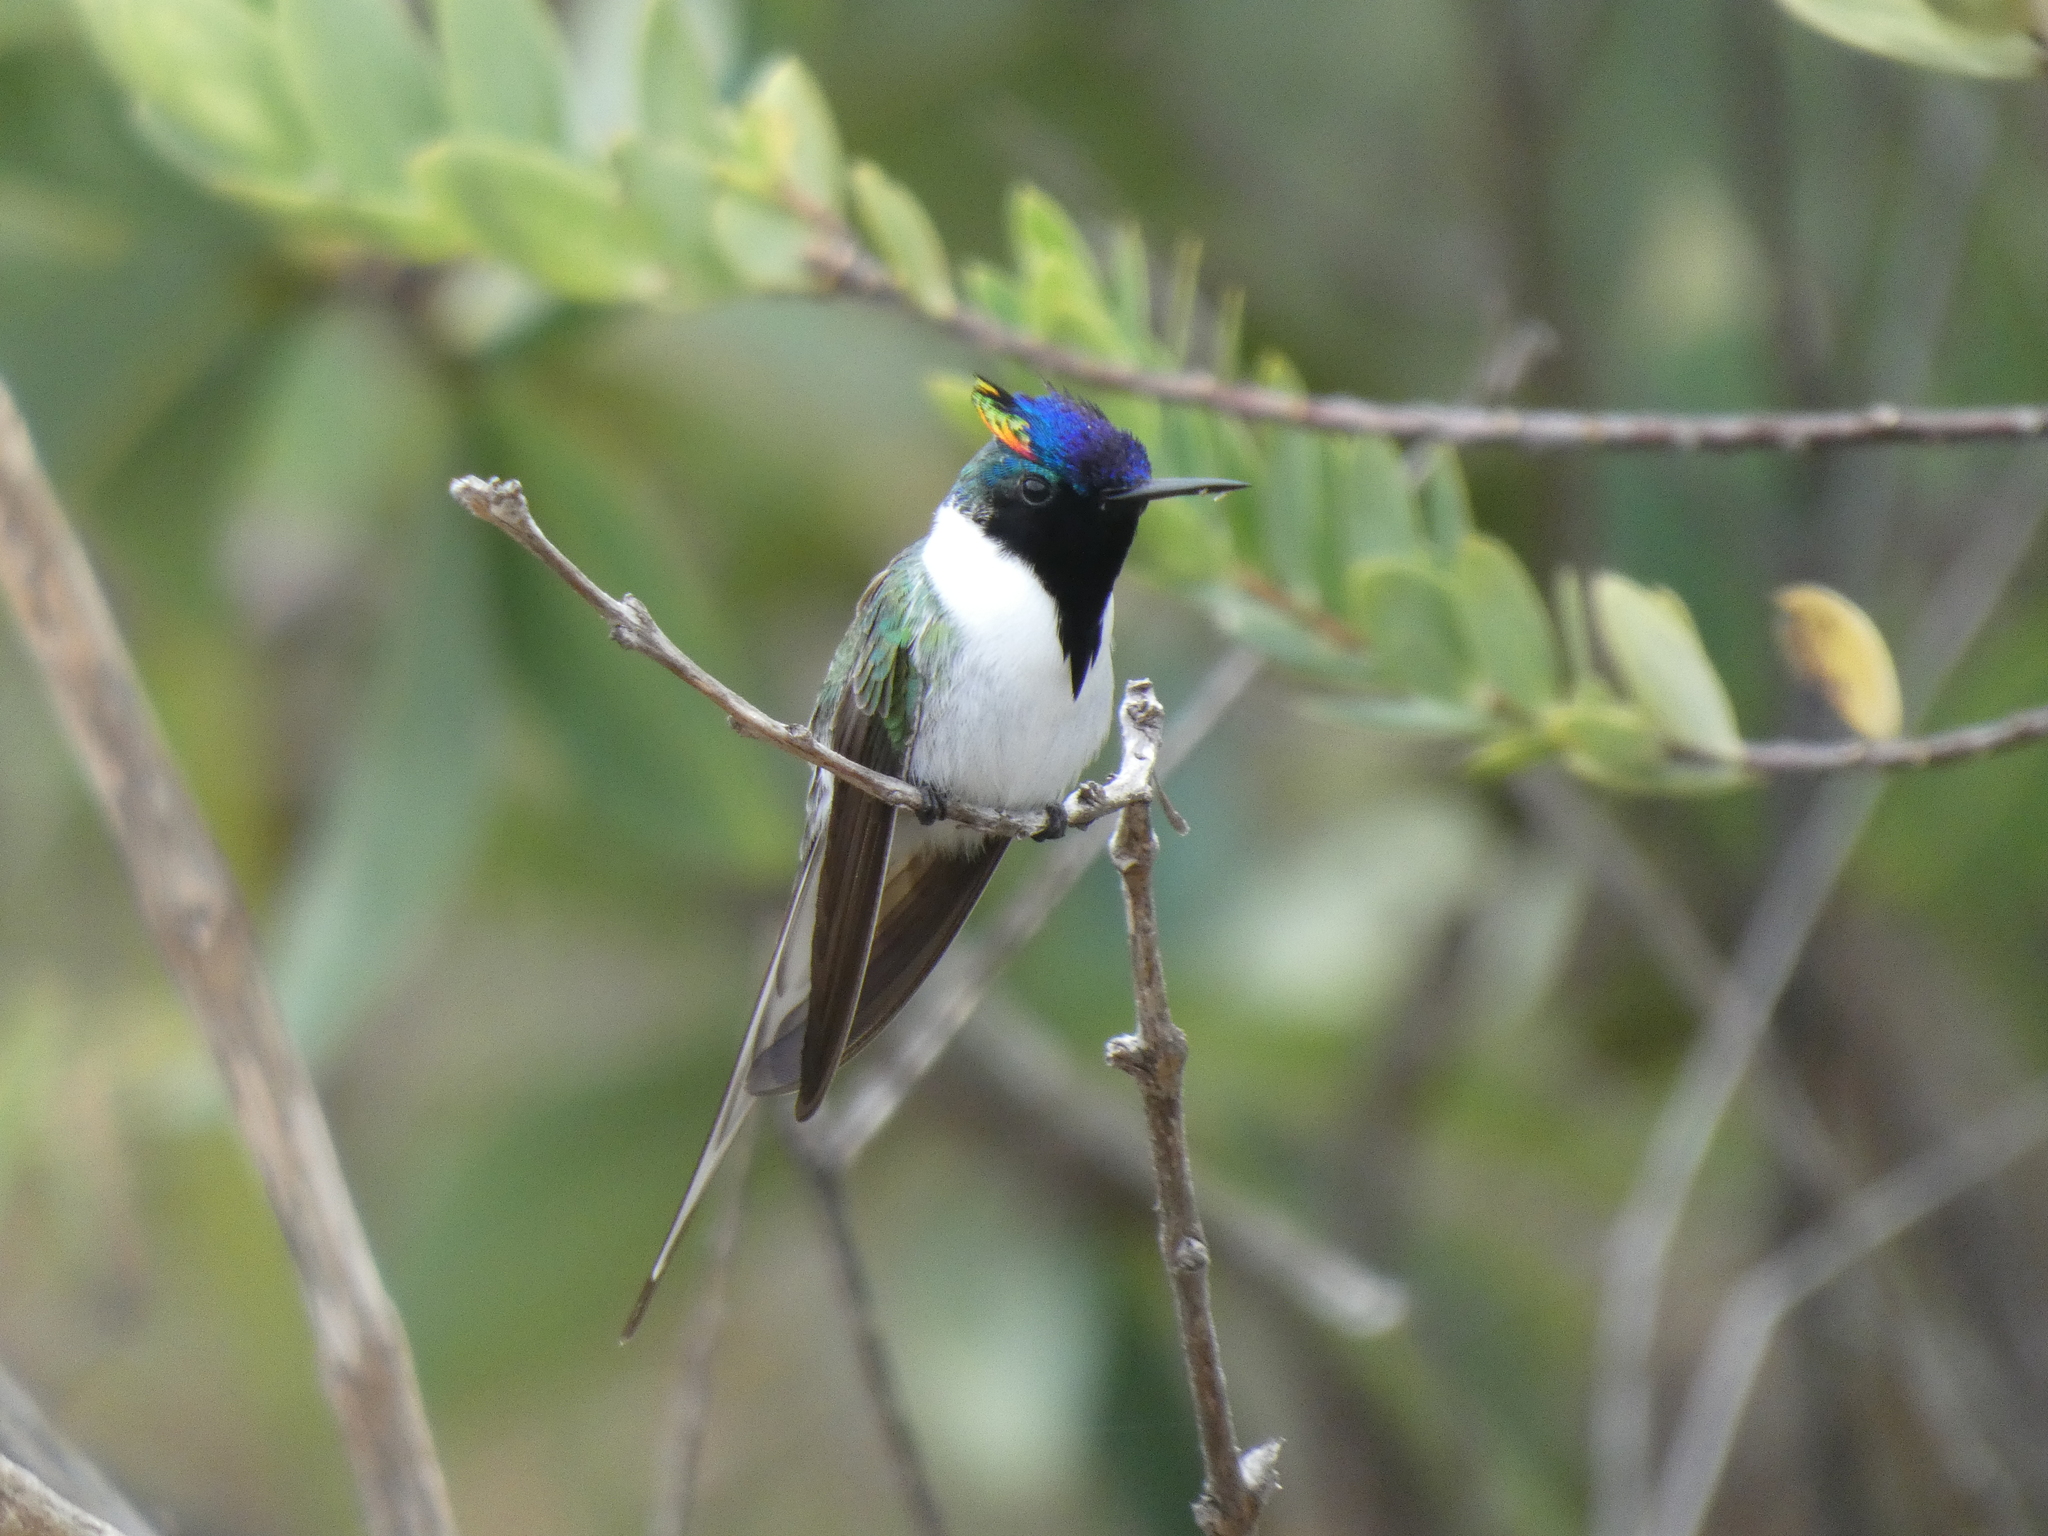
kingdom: Animalia
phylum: Chordata
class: Aves
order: Apodiformes
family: Trochilidae
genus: Heliactin
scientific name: Heliactin bilophus
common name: Horned sungem
